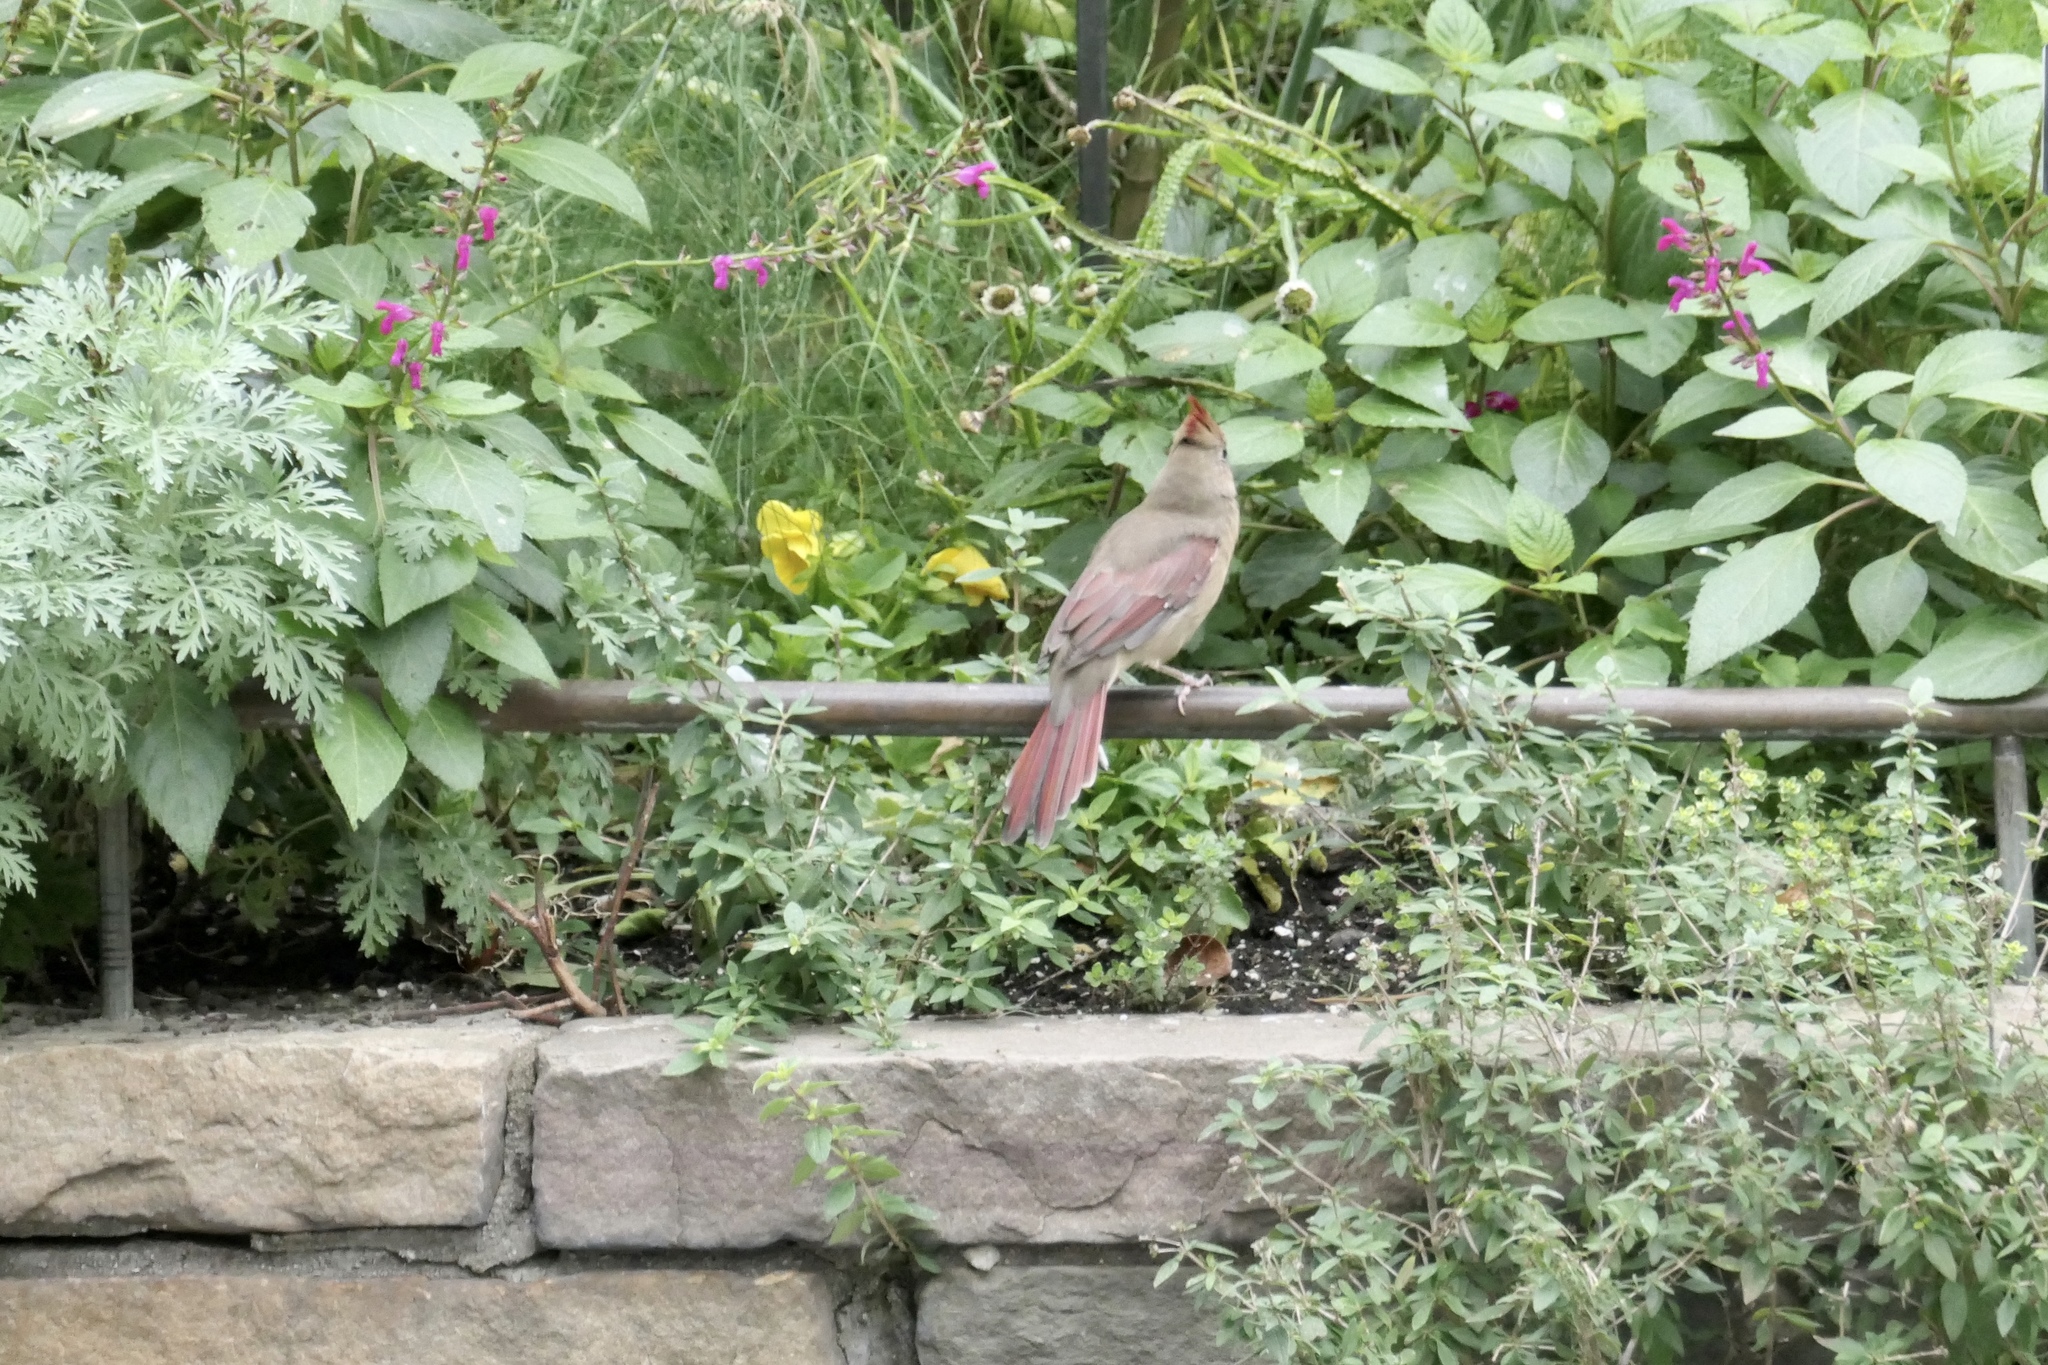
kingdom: Animalia
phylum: Chordata
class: Aves
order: Passeriformes
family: Cardinalidae
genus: Cardinalis
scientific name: Cardinalis cardinalis
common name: Northern cardinal
